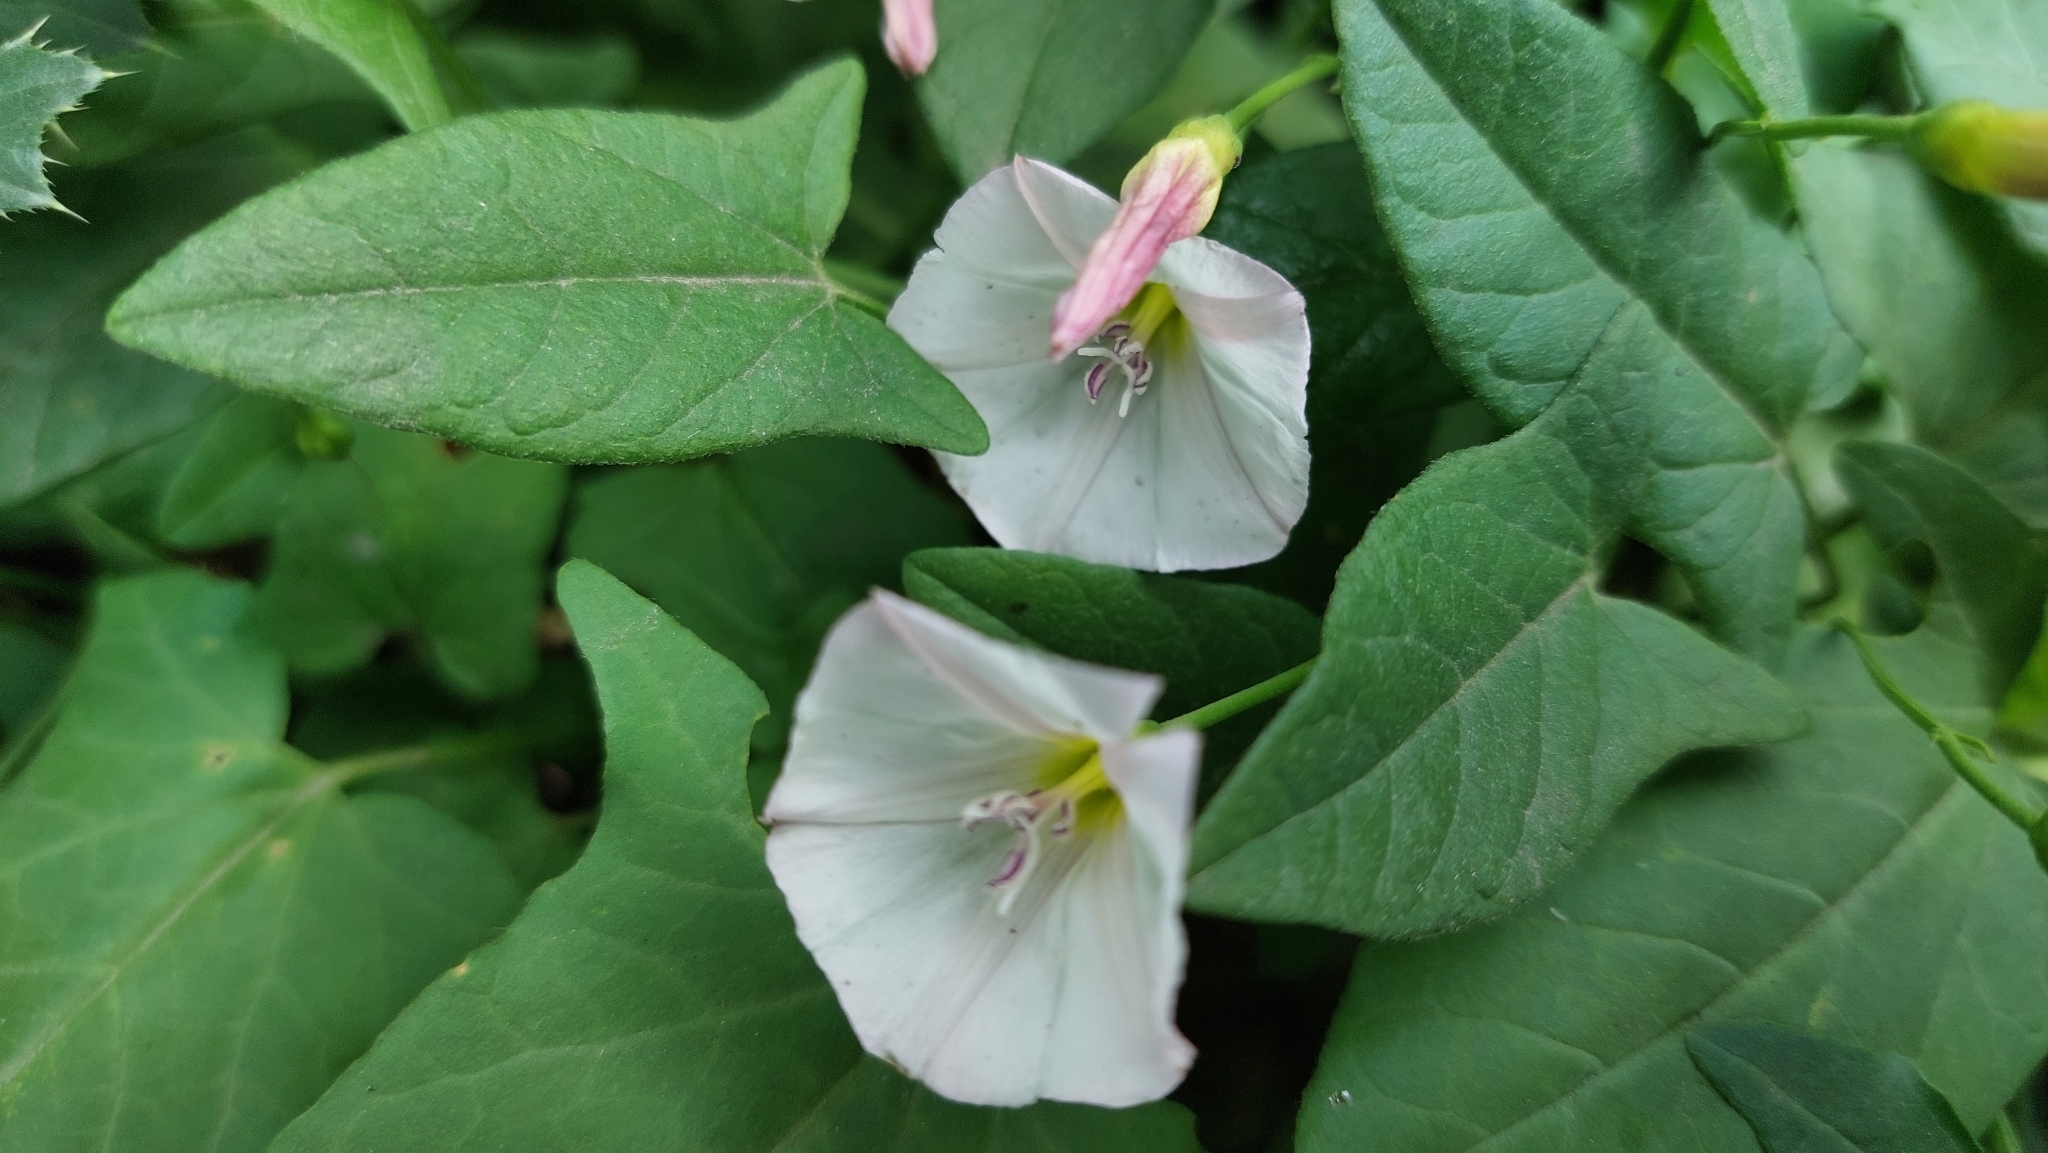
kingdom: Plantae
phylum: Tracheophyta
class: Magnoliopsida
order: Solanales
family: Convolvulaceae
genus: Convolvulus
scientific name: Convolvulus arvensis
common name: Field bindweed
